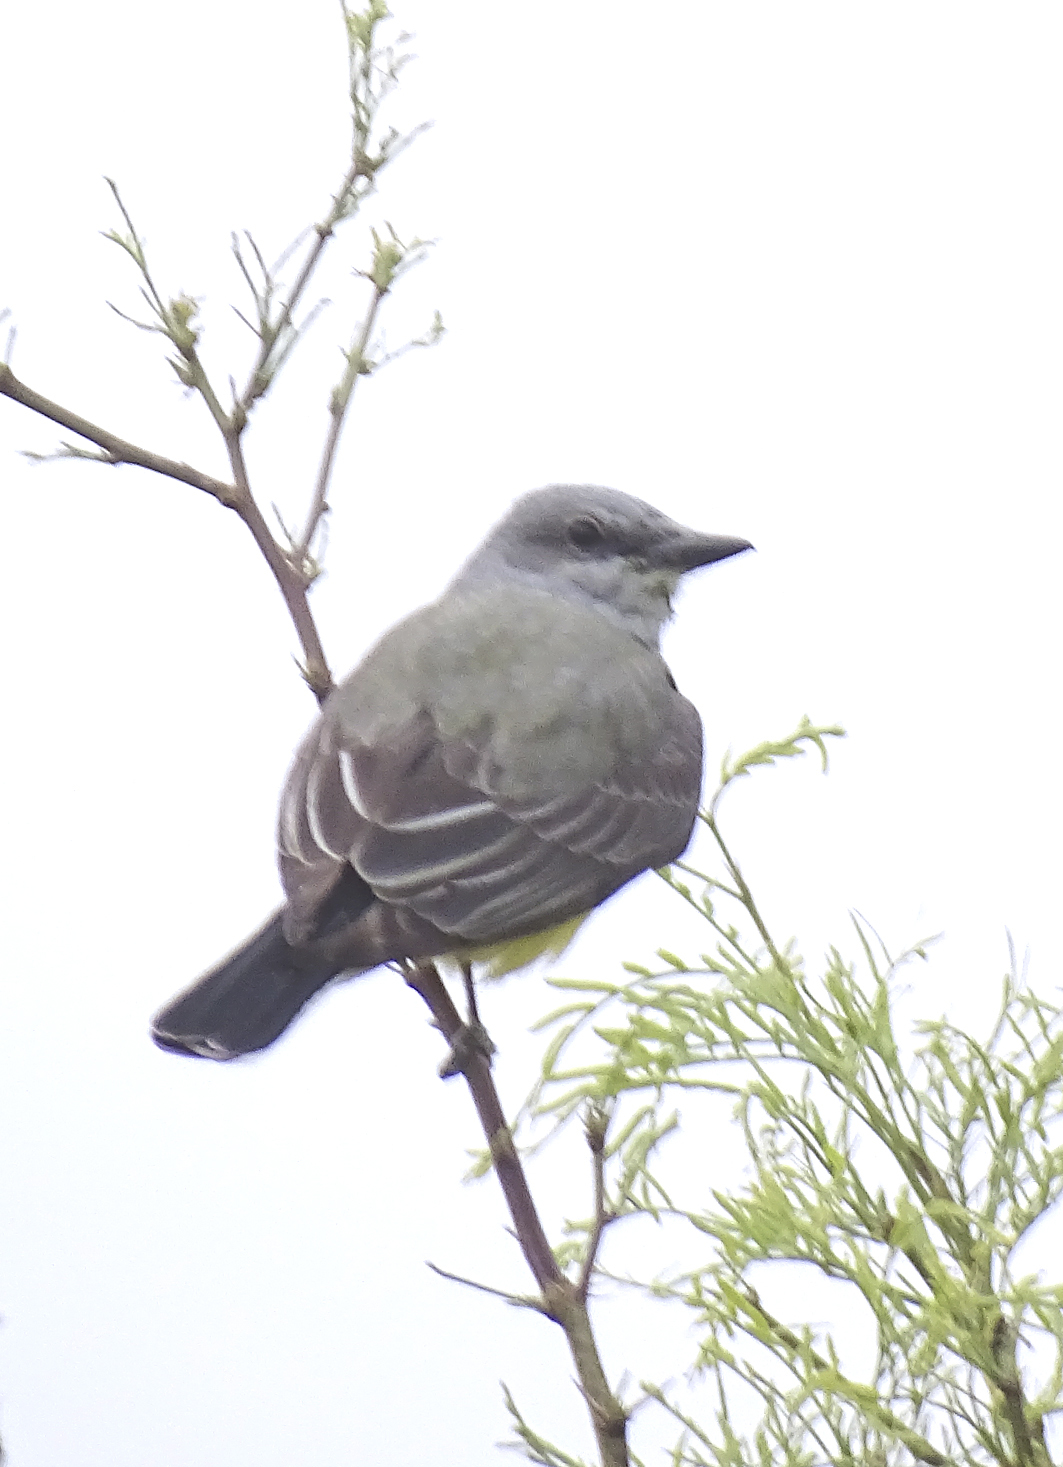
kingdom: Animalia
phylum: Chordata
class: Aves
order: Passeriformes
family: Tyrannidae
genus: Tyrannus
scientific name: Tyrannus verticalis
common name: Western kingbird
